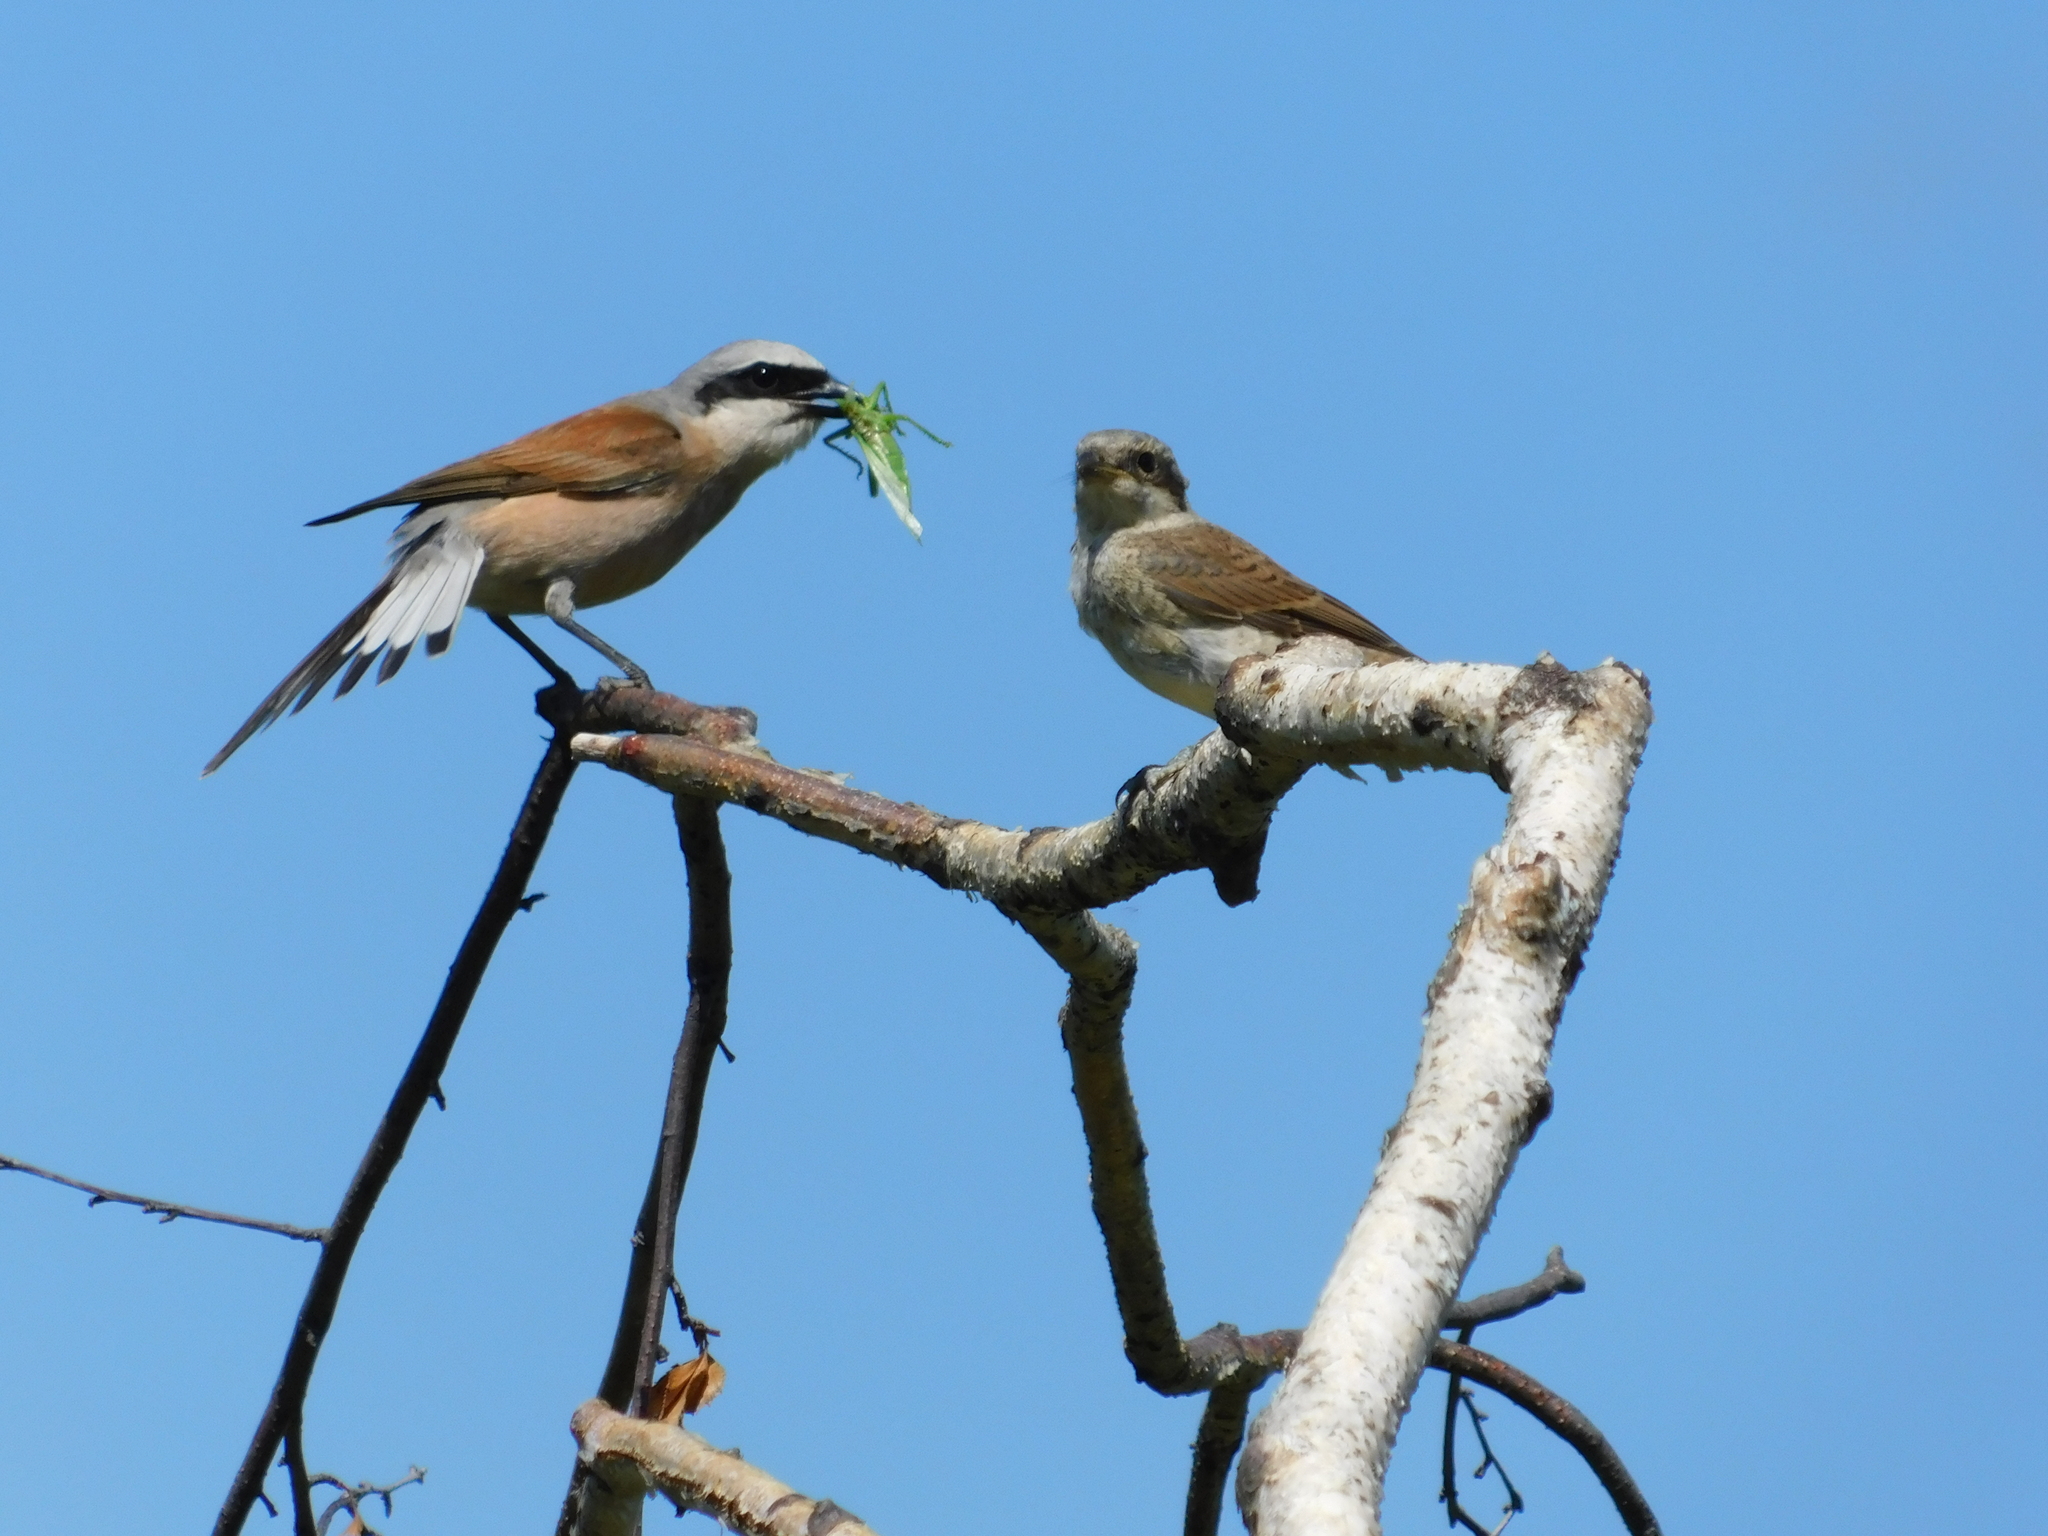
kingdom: Animalia
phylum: Chordata
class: Aves
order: Passeriformes
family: Laniidae
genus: Lanius
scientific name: Lanius collurio
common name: Red-backed shrike
